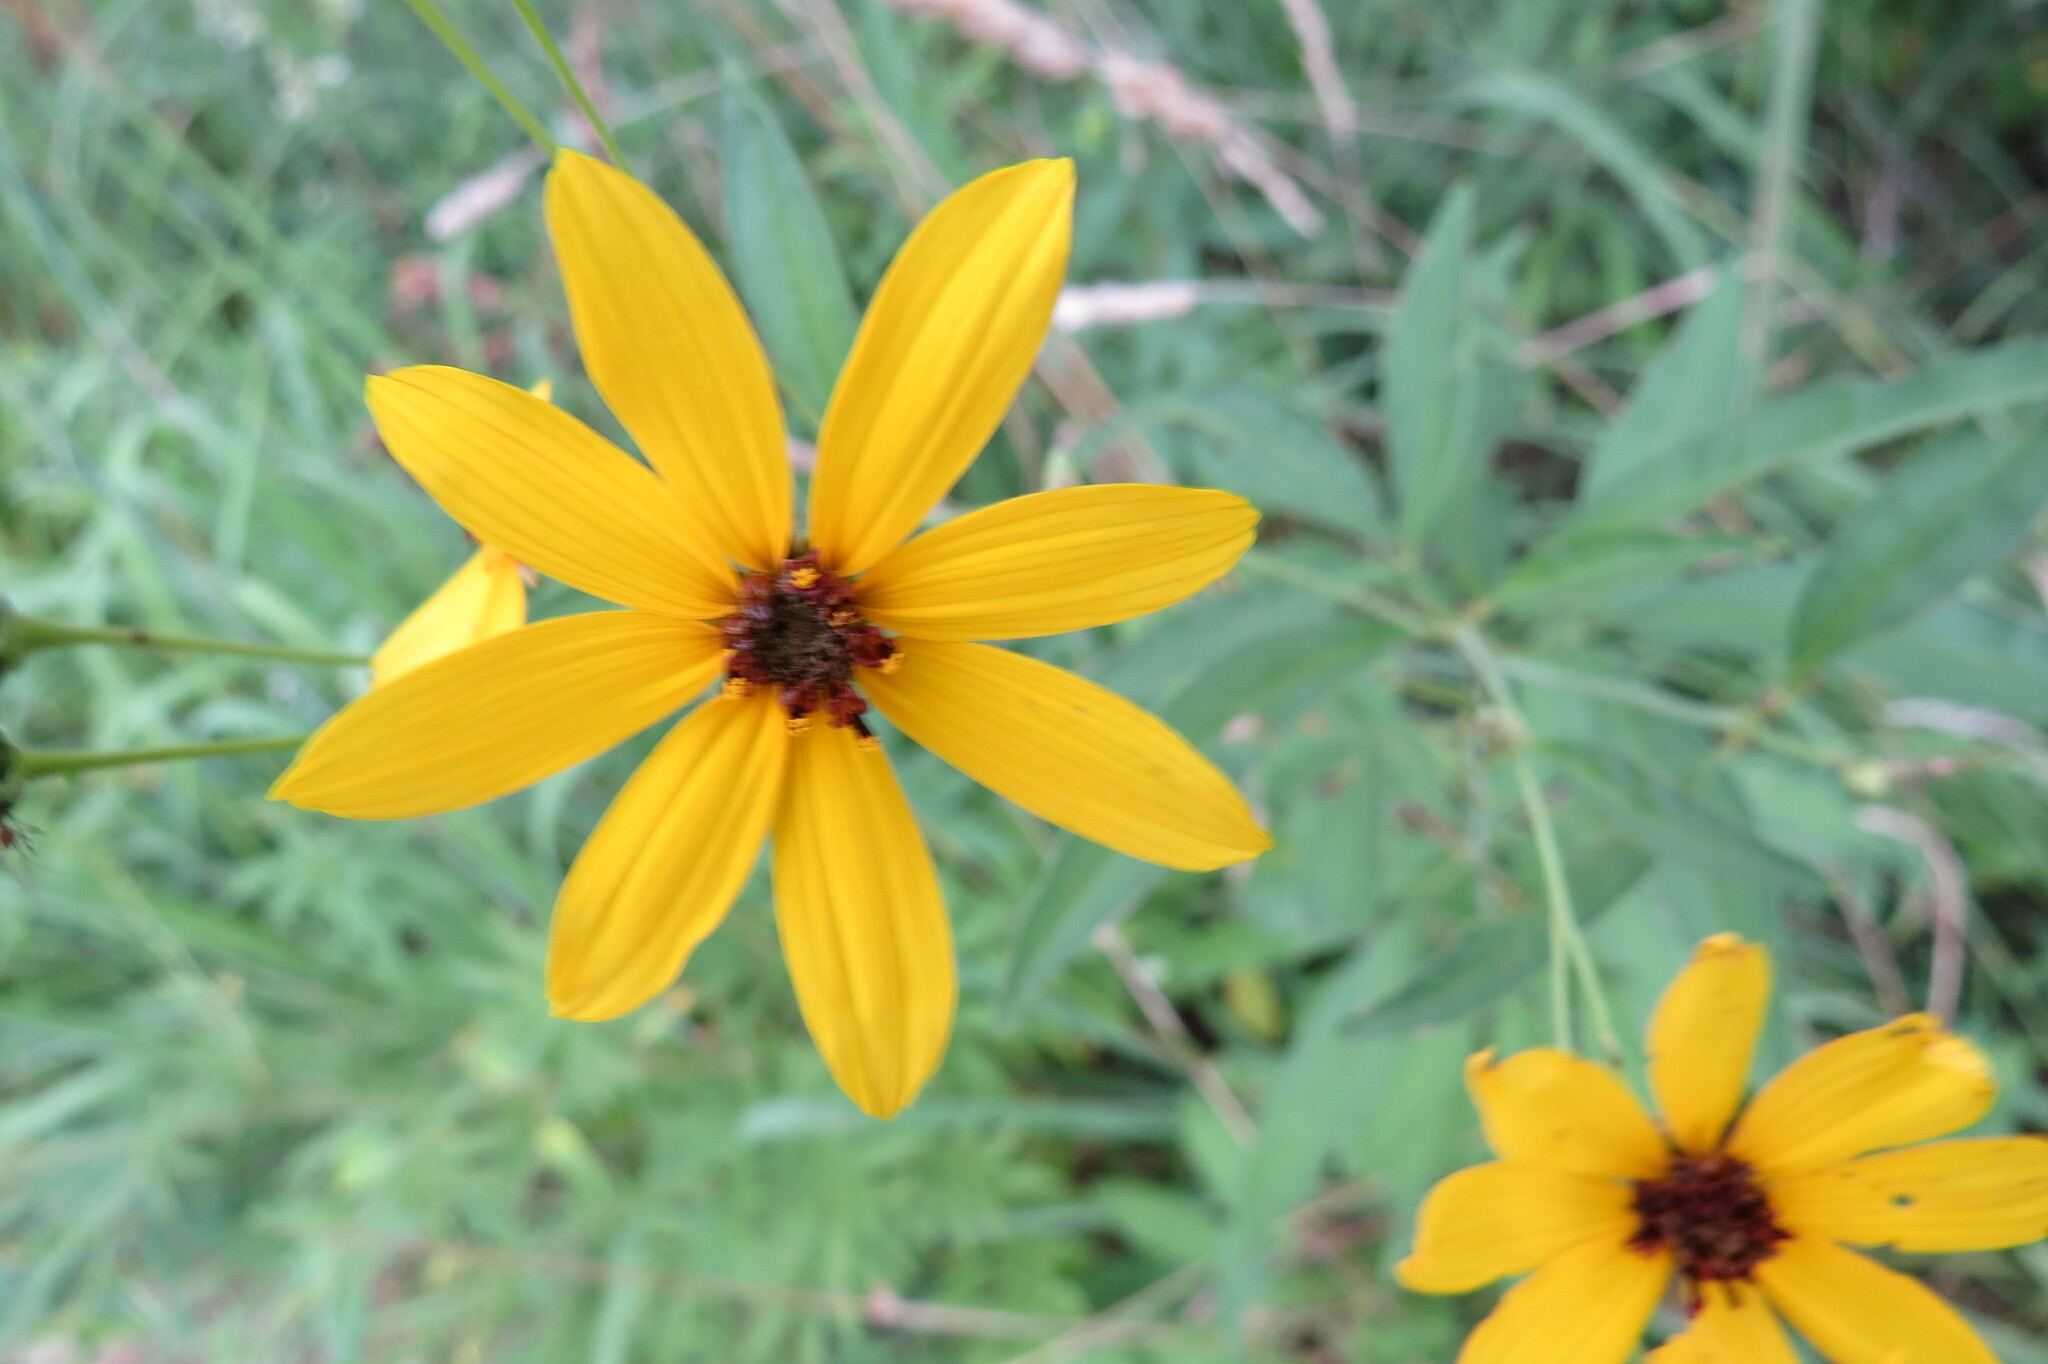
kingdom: Plantae
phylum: Tracheophyta
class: Magnoliopsida
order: Asterales
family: Asteraceae
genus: Coreopsis
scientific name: Coreopsis tripteris
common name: Tall coreopsis
